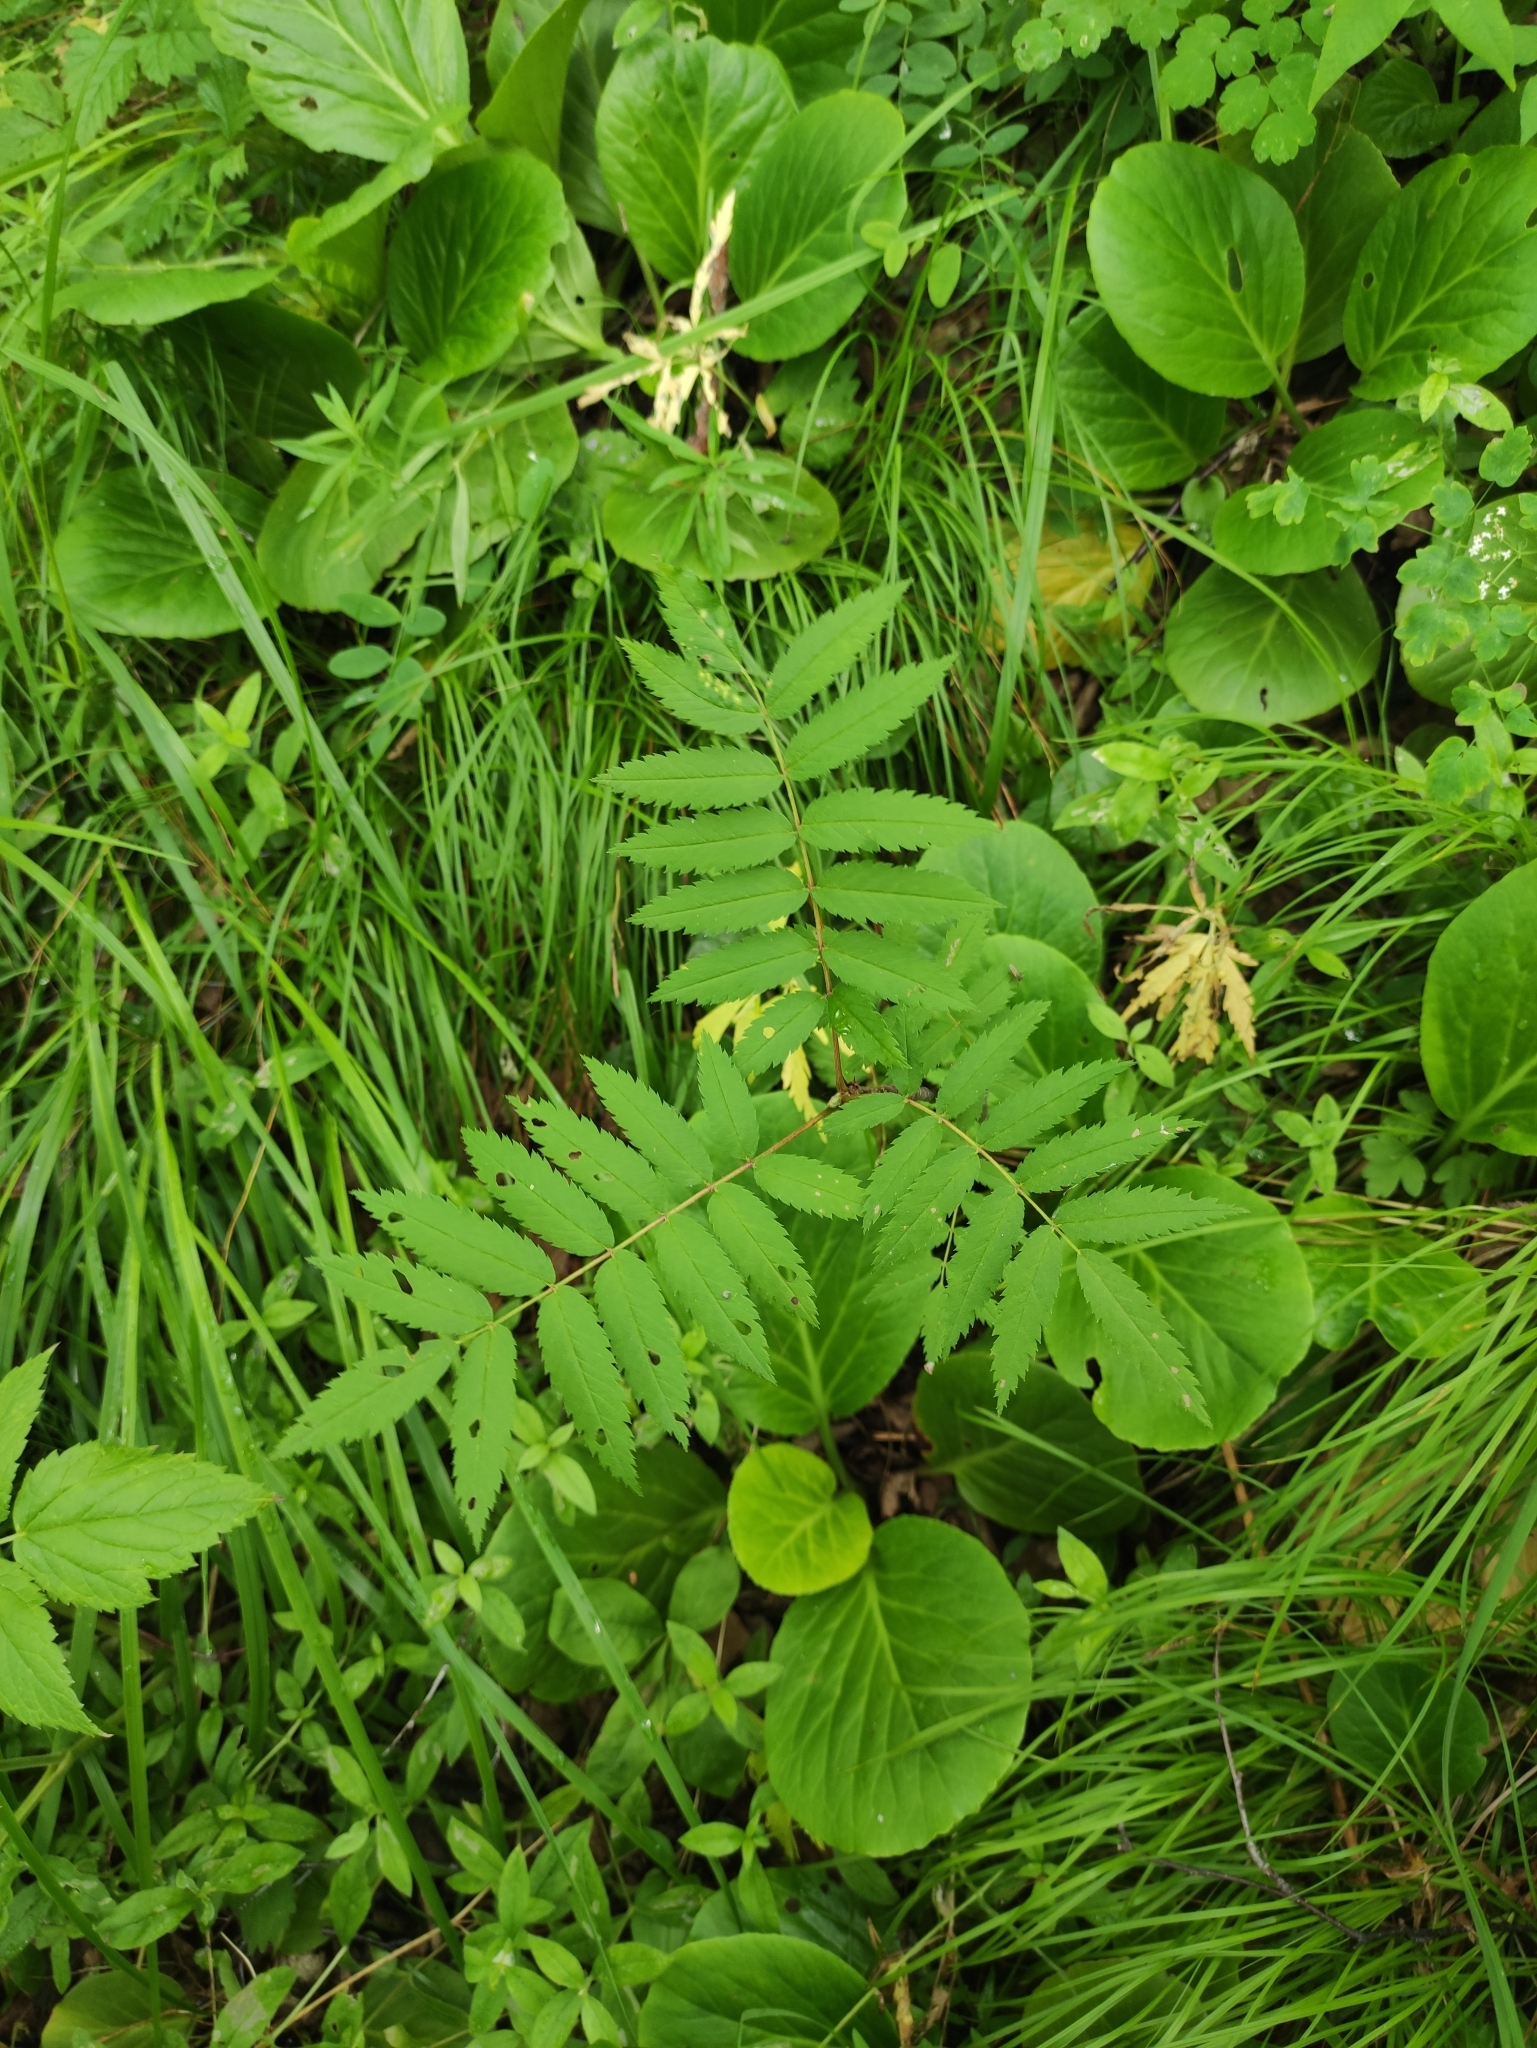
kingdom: Plantae
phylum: Tracheophyta
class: Magnoliopsida
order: Rosales
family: Rosaceae
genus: Sorbus
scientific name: Sorbus aucuparia
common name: Rowan
